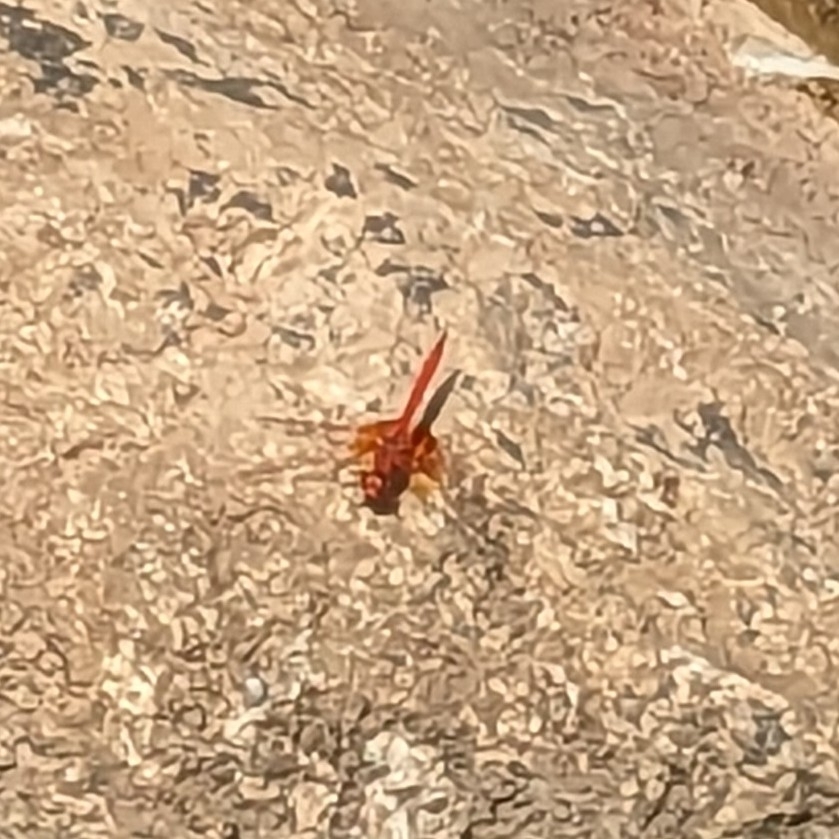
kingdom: Animalia
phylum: Arthropoda
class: Insecta
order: Odonata
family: Libellulidae
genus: Trithemis
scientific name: Trithemis kirbyi
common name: Kirby's dropwing
